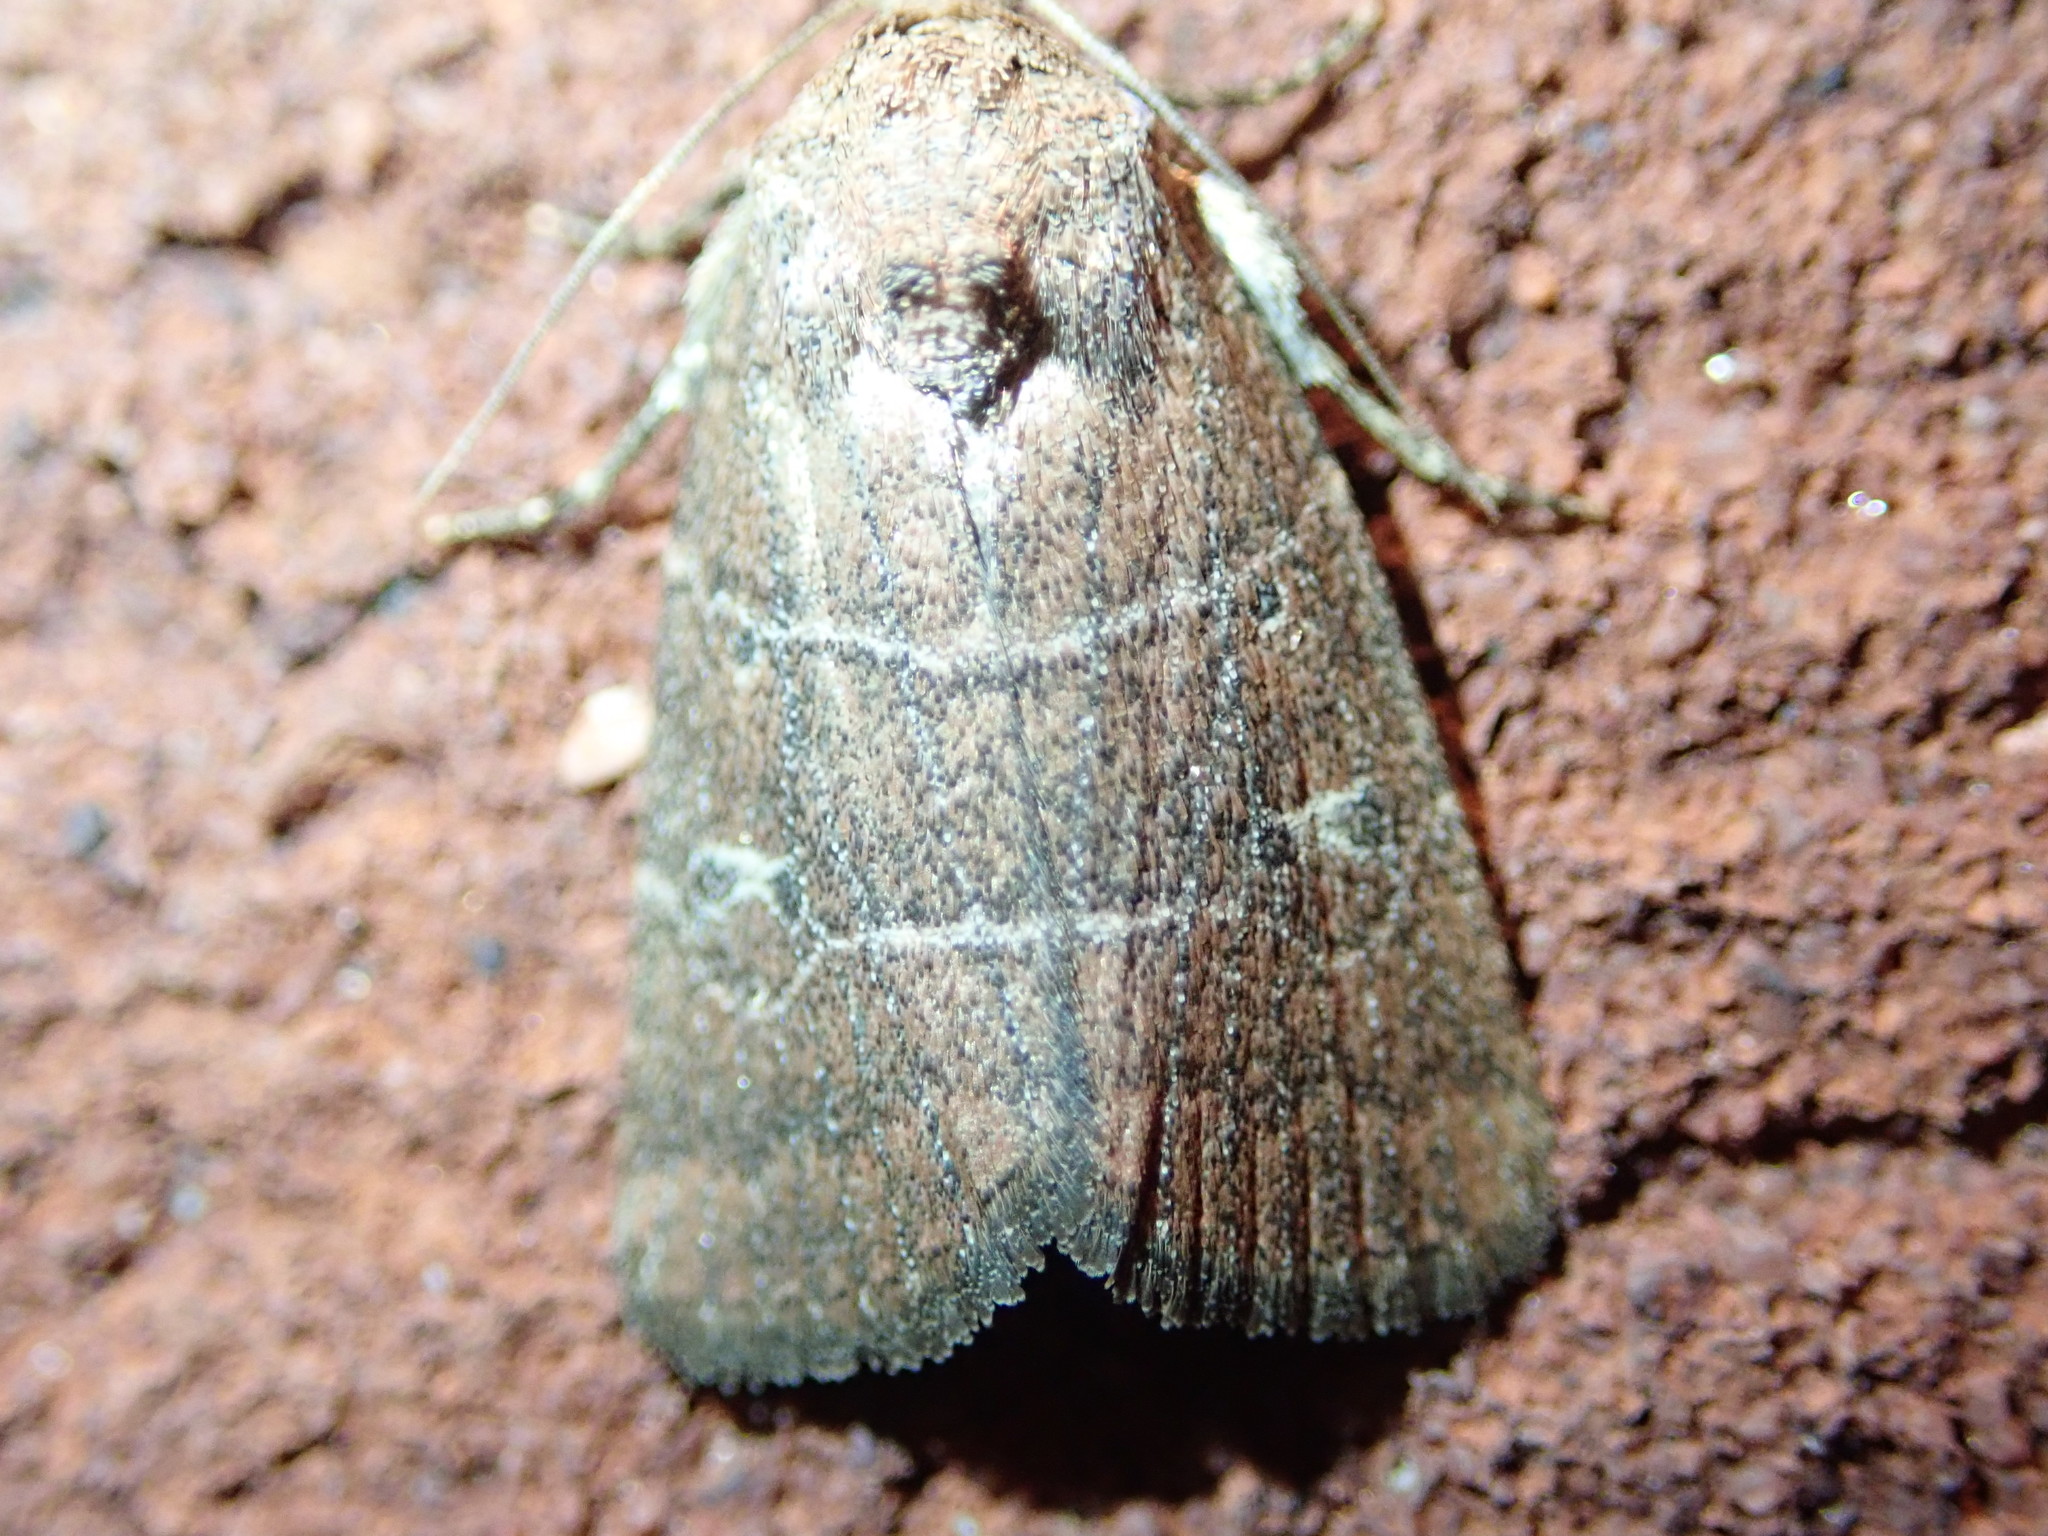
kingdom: Animalia
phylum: Arthropoda
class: Insecta
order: Lepidoptera
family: Noctuidae
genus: Elaphria
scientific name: Elaphria grata
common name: Grateful midget moth
